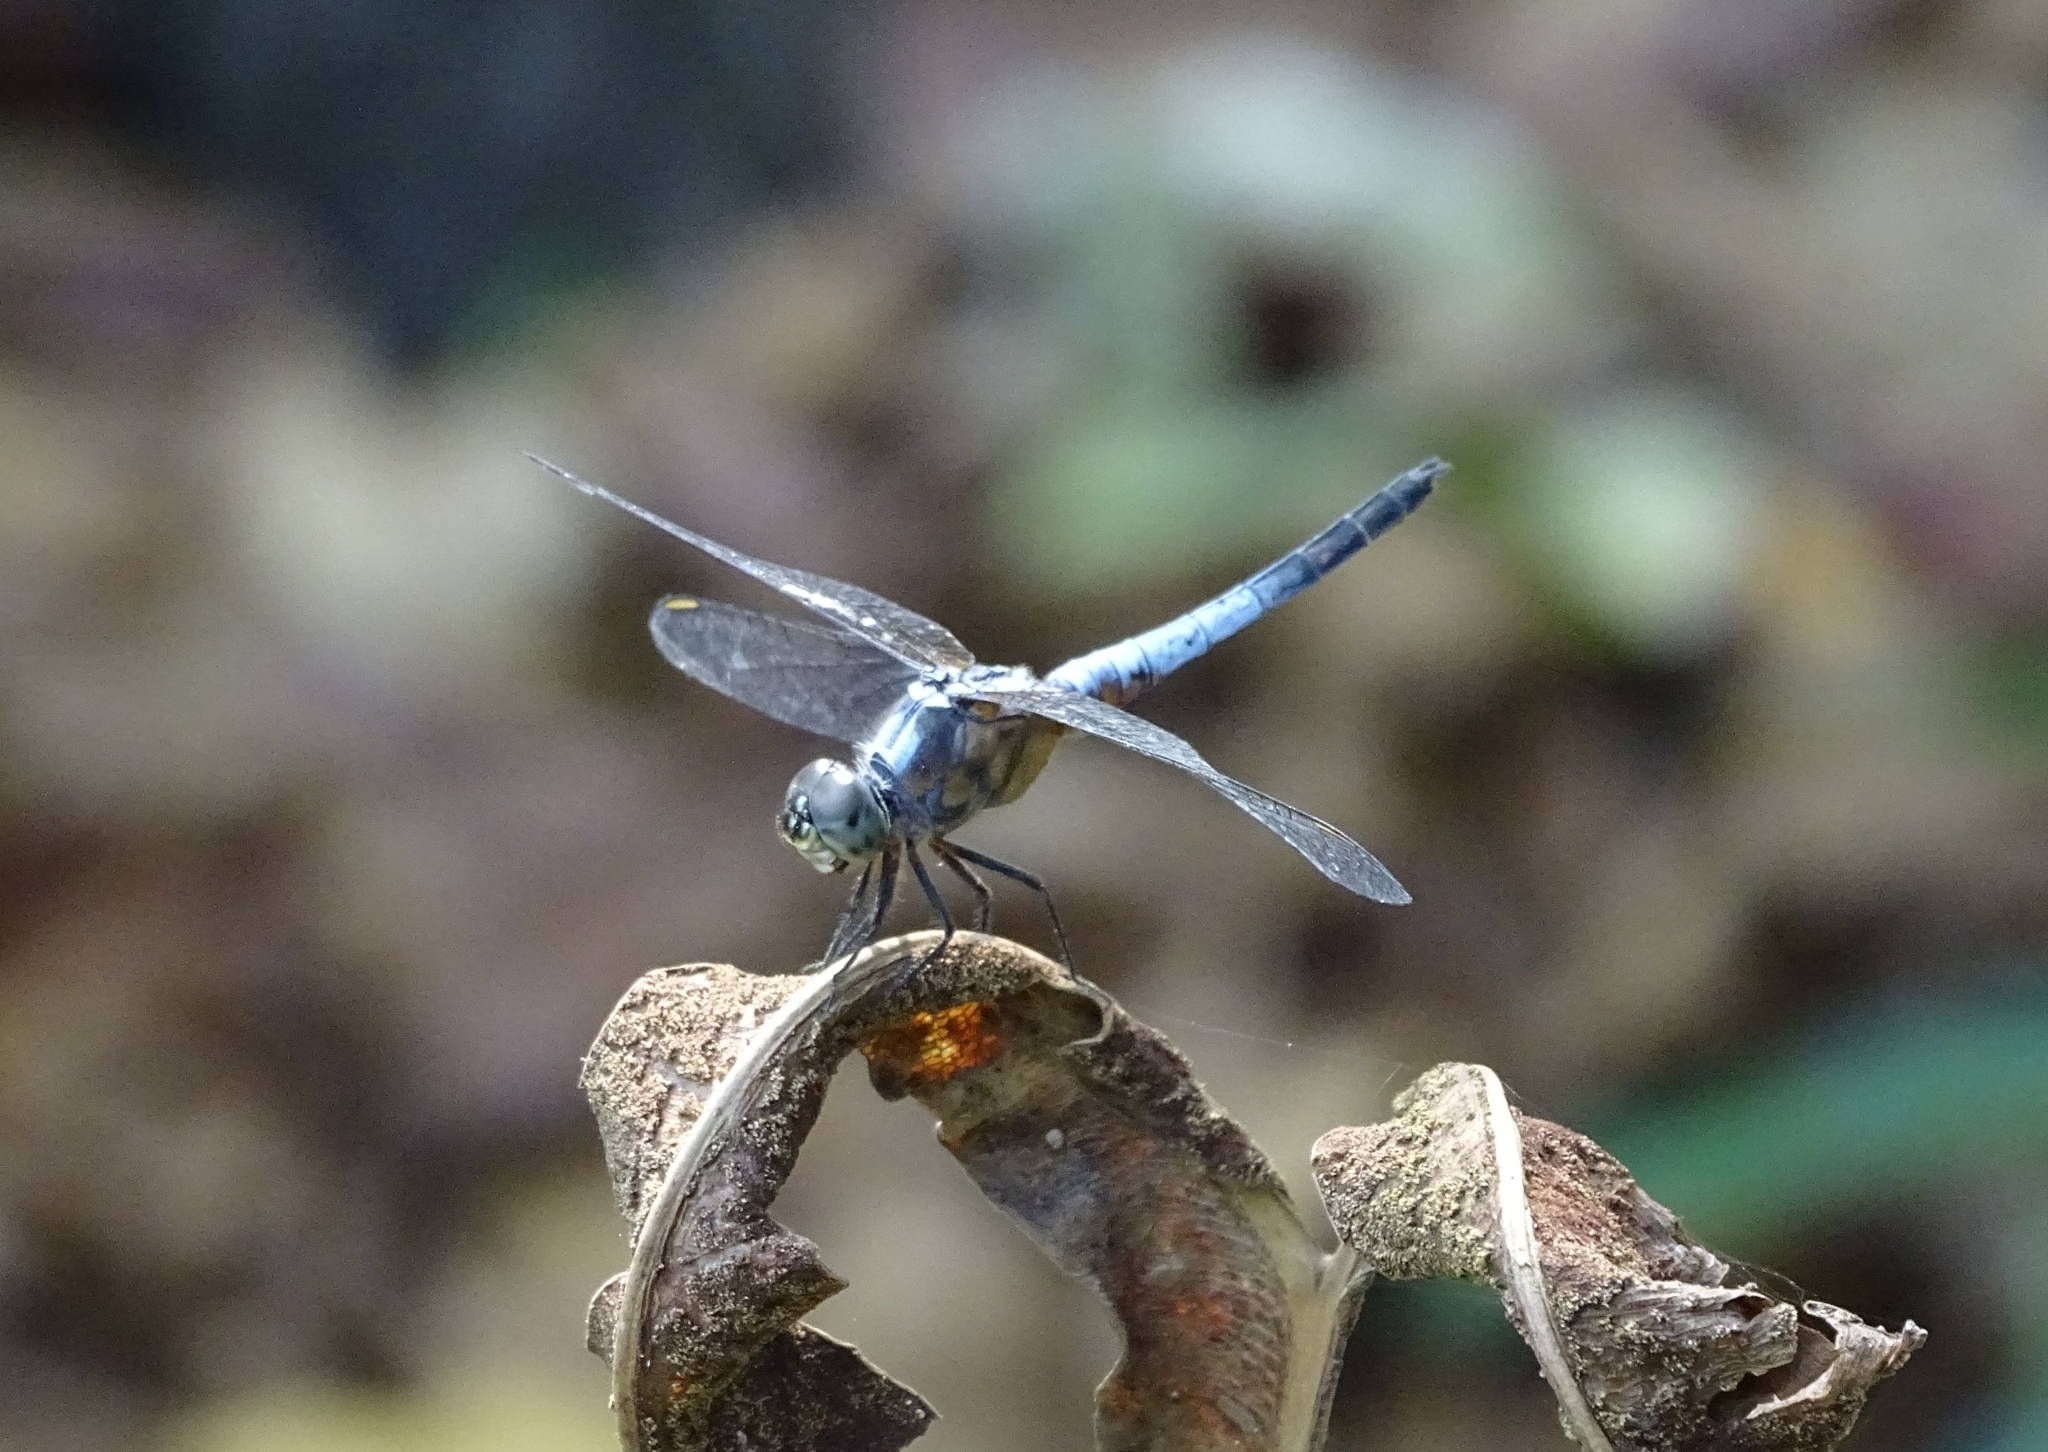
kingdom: Animalia
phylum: Arthropoda
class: Insecta
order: Odonata
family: Libellulidae
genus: Brachydiplax
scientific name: Brachydiplax chalybea
